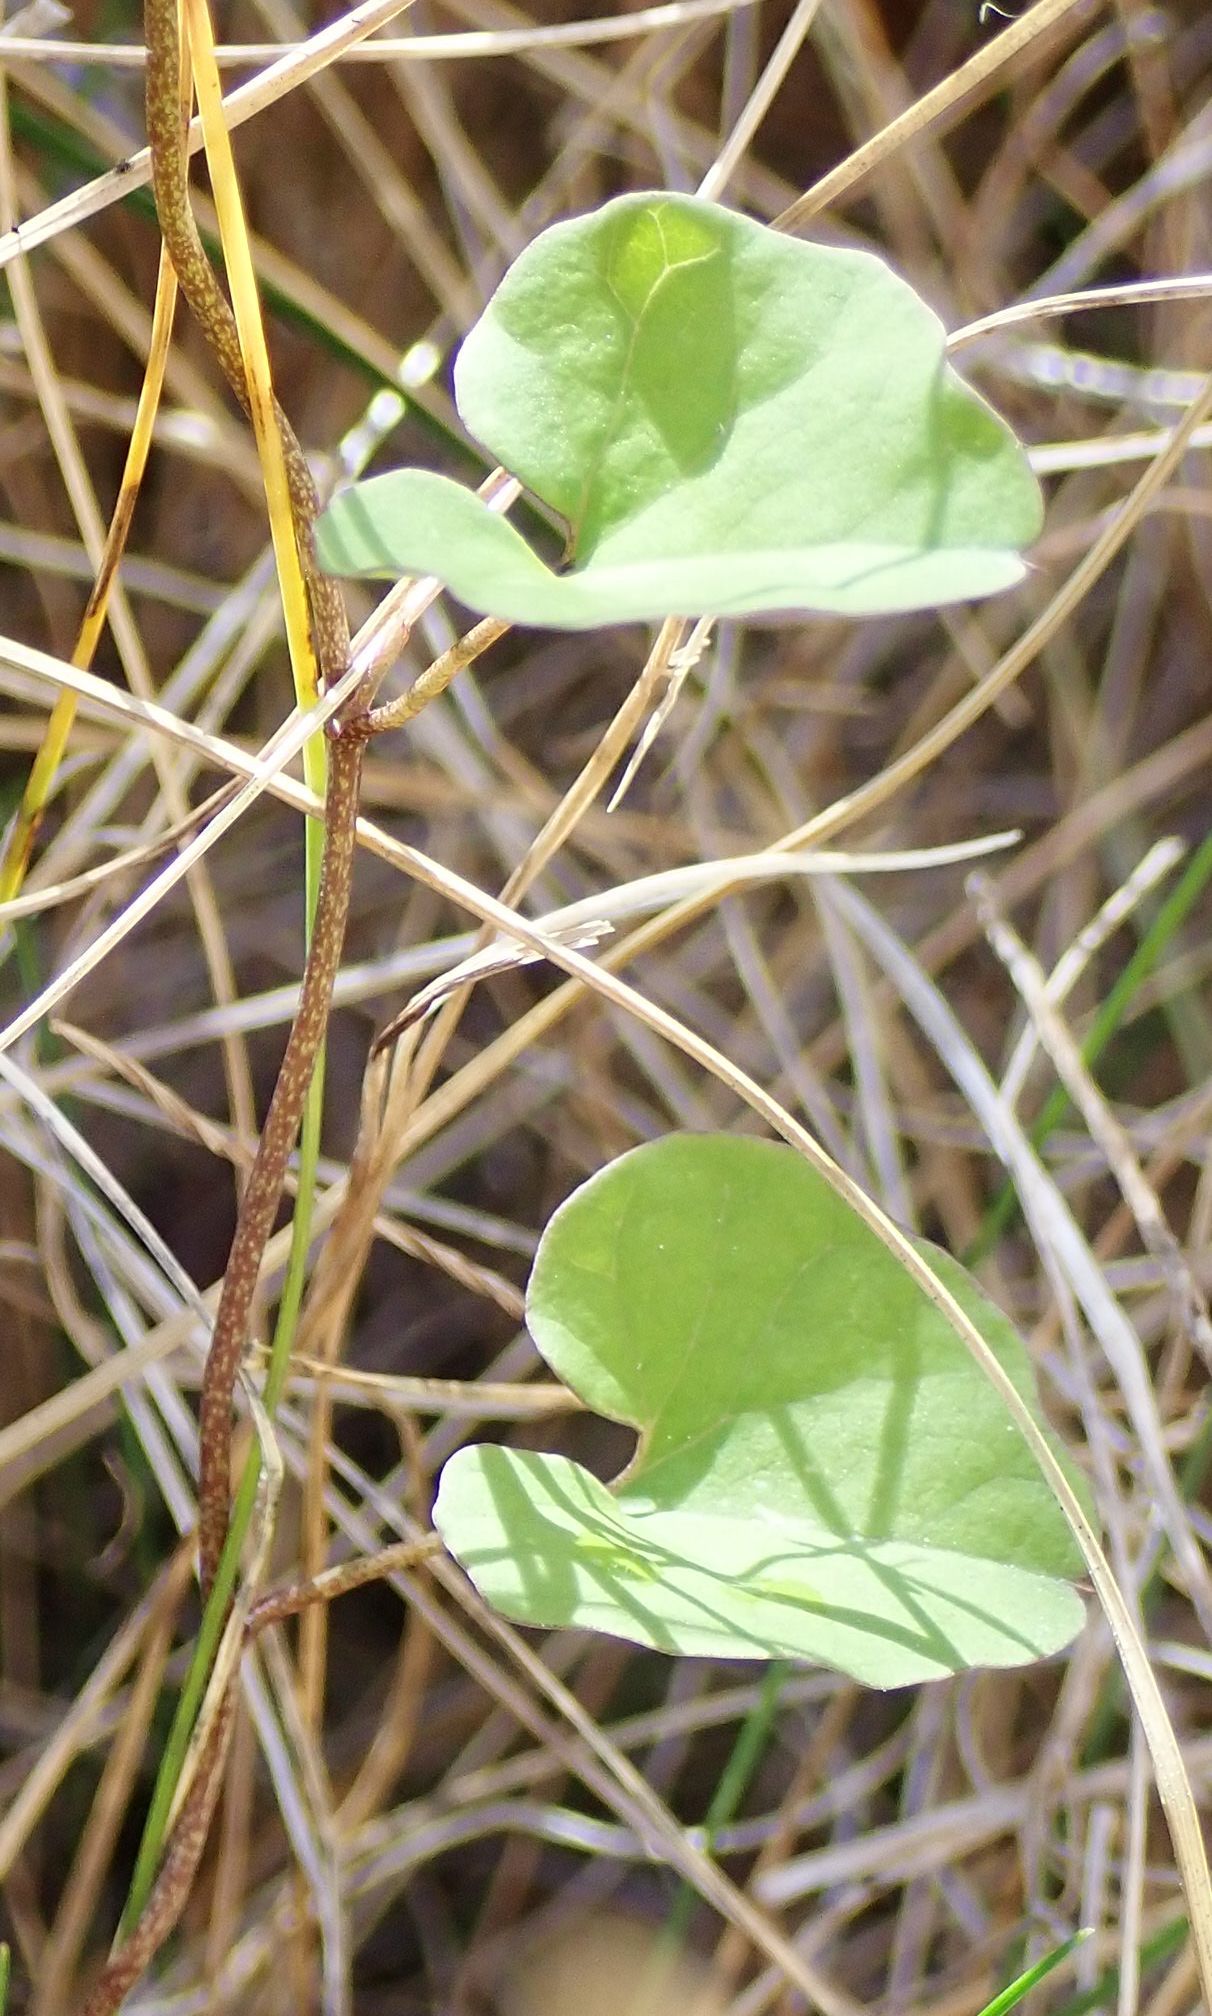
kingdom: Plantae
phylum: Tracheophyta
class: Magnoliopsida
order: Solanales
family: Convolvulaceae
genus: Calystegia
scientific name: Calystegia tuguriorum
